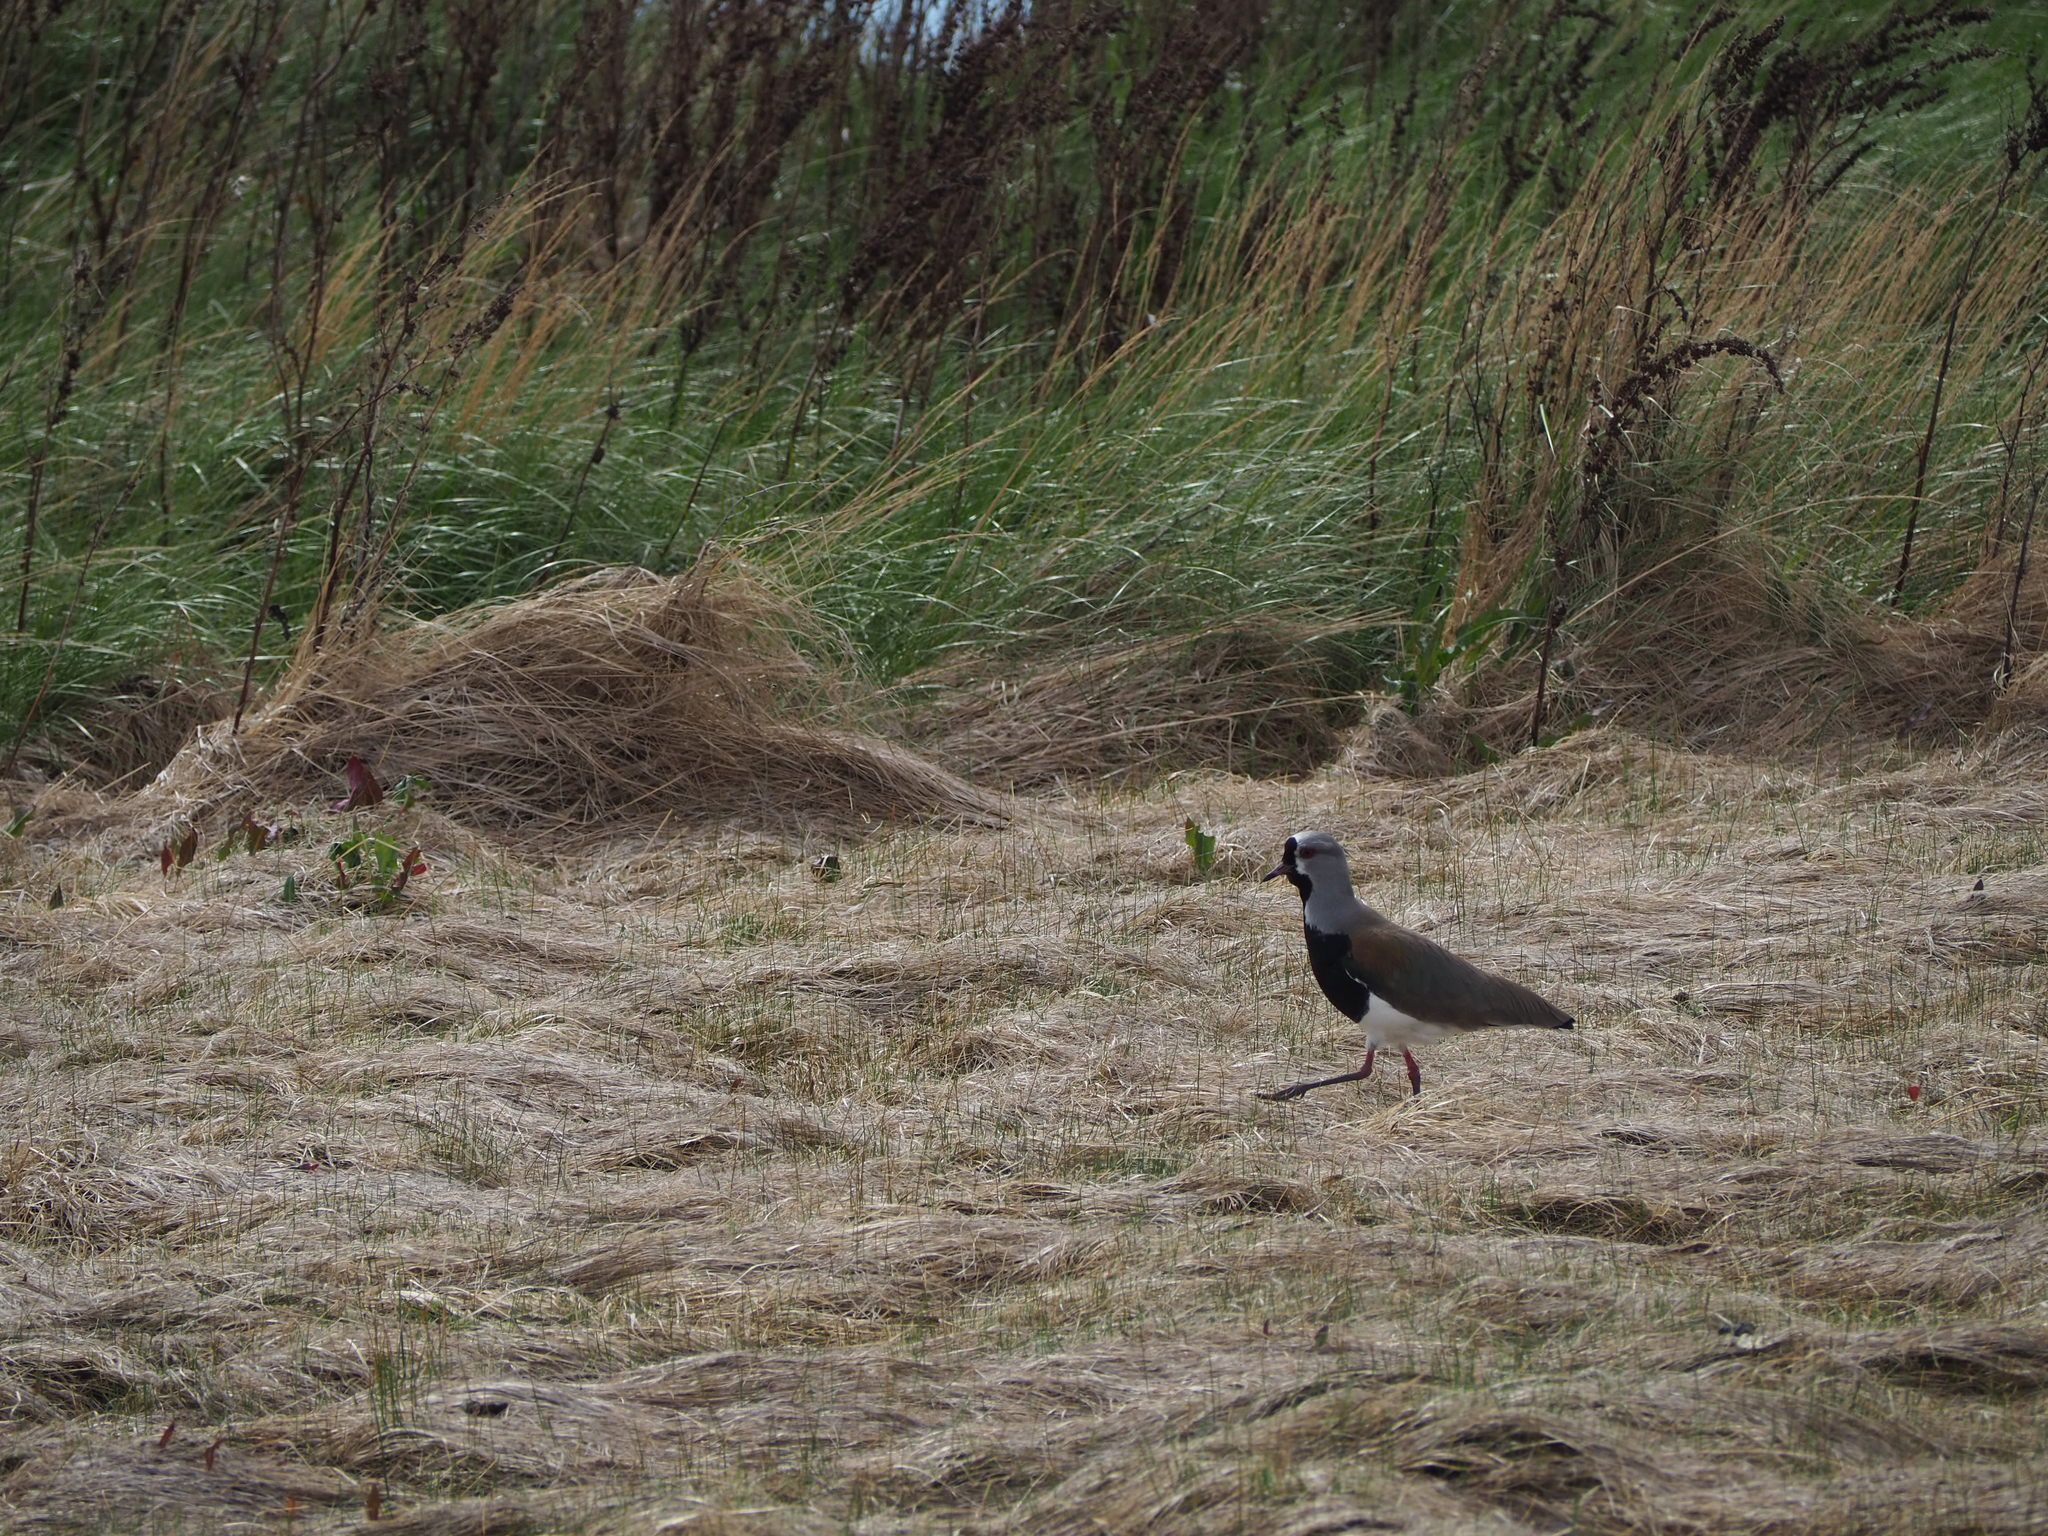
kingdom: Animalia
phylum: Chordata
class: Aves
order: Charadriiformes
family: Charadriidae
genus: Vanellus
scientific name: Vanellus chilensis
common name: Southern lapwing
